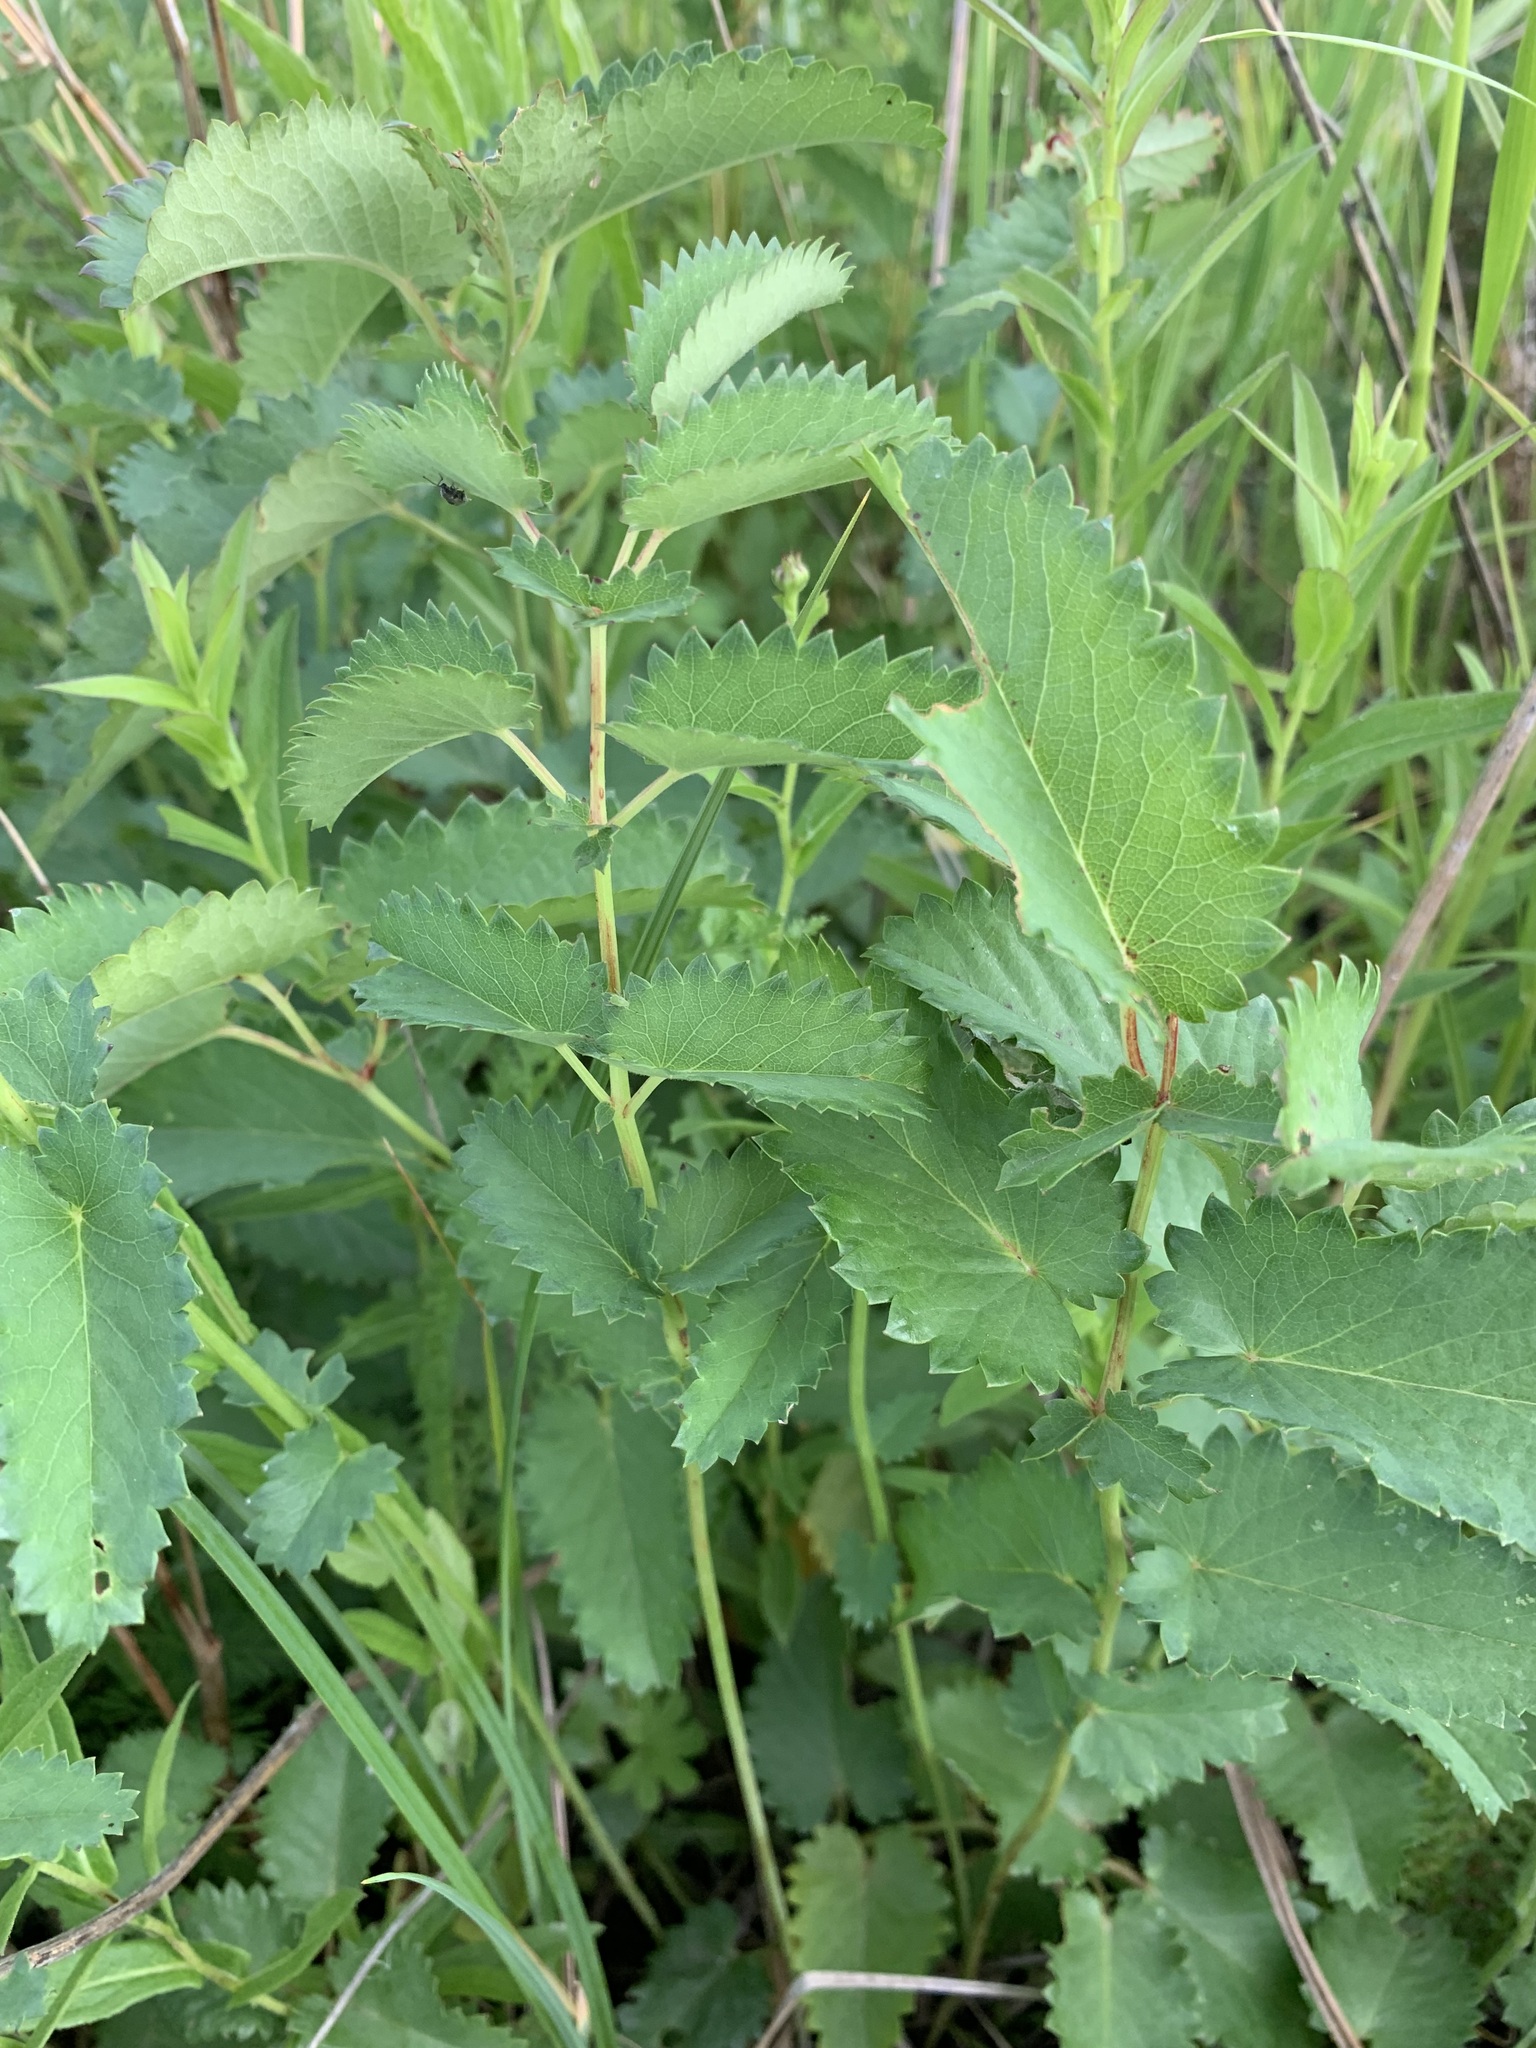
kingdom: Plantae
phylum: Tracheophyta
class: Magnoliopsida
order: Rosales
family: Rosaceae
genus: Sanguisorba
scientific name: Sanguisorba officinalis
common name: Great burnet
